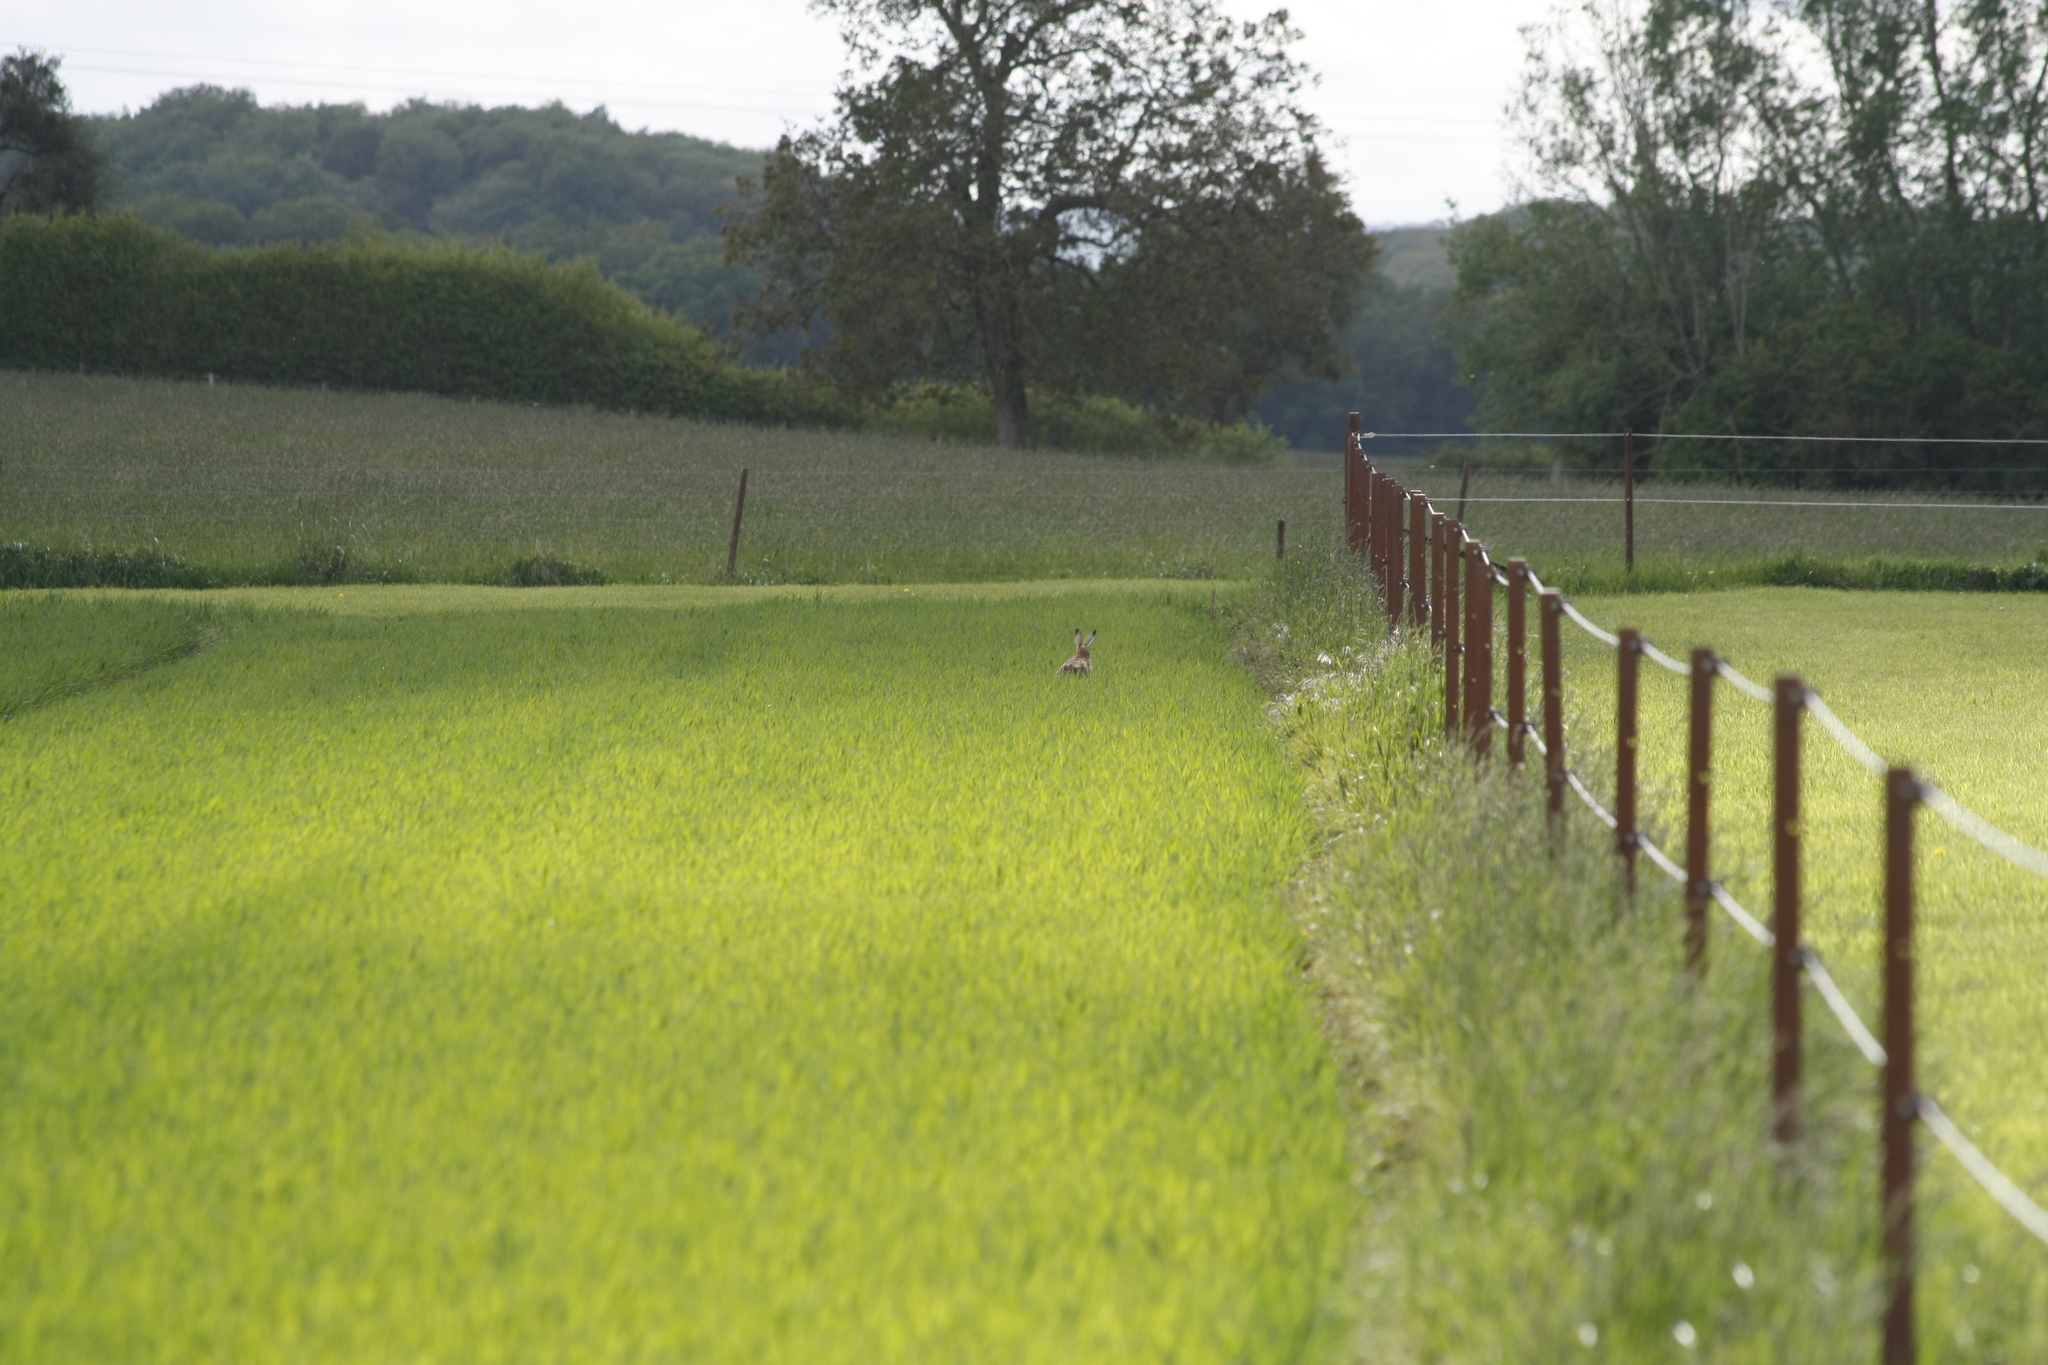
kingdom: Animalia
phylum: Chordata
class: Mammalia
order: Lagomorpha
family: Leporidae
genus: Lepus
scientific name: Lepus europaeus
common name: European hare
